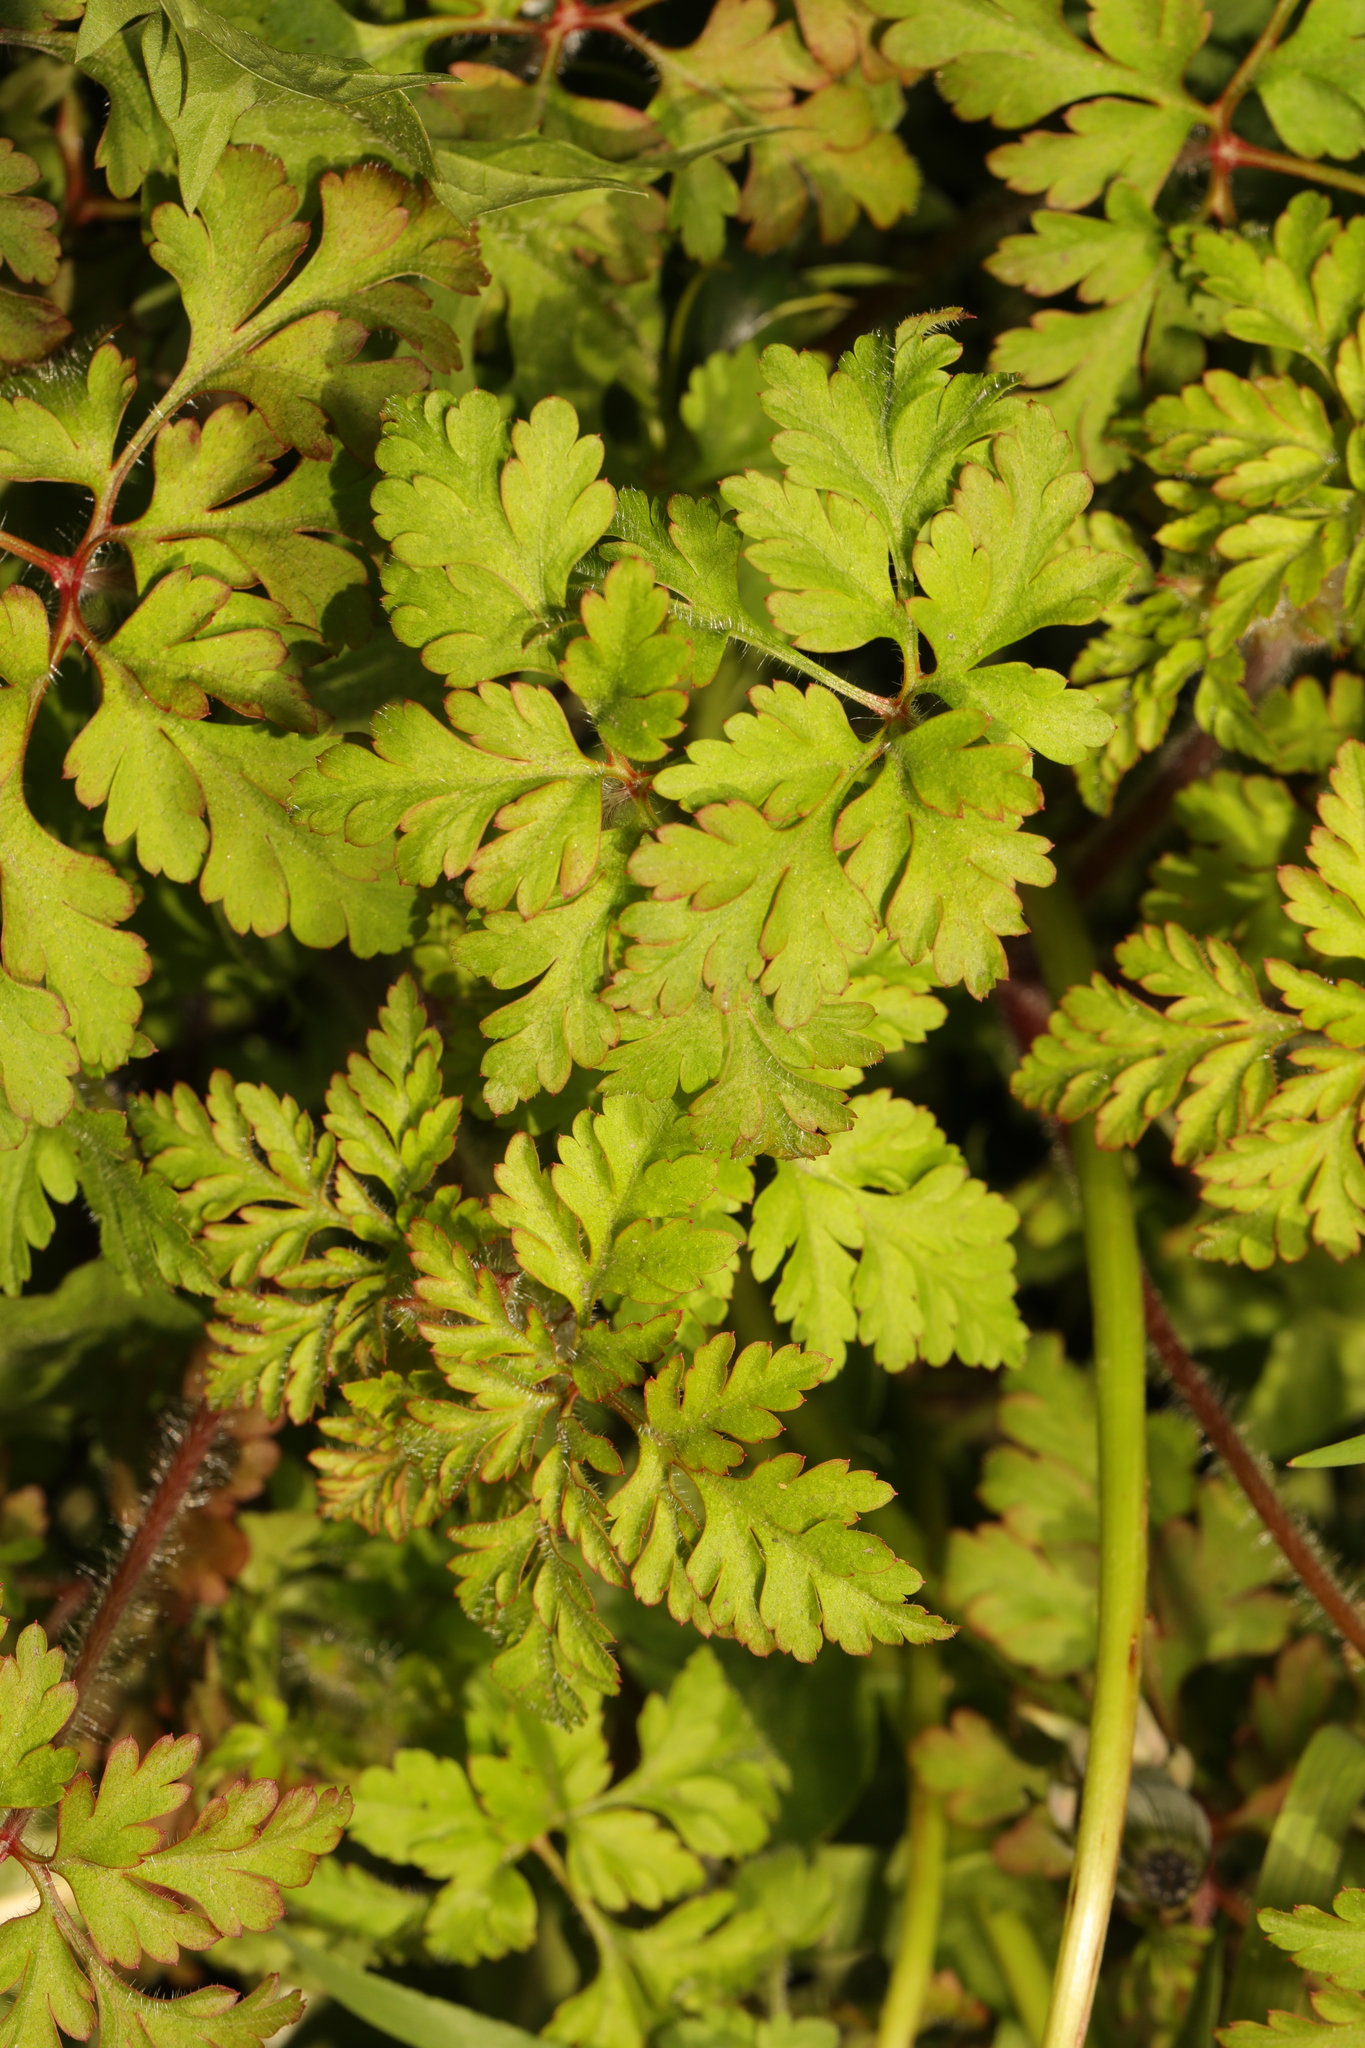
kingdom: Plantae
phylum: Tracheophyta
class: Magnoliopsida
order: Geraniales
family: Geraniaceae
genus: Geranium
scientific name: Geranium robertianum
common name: Herb-robert
